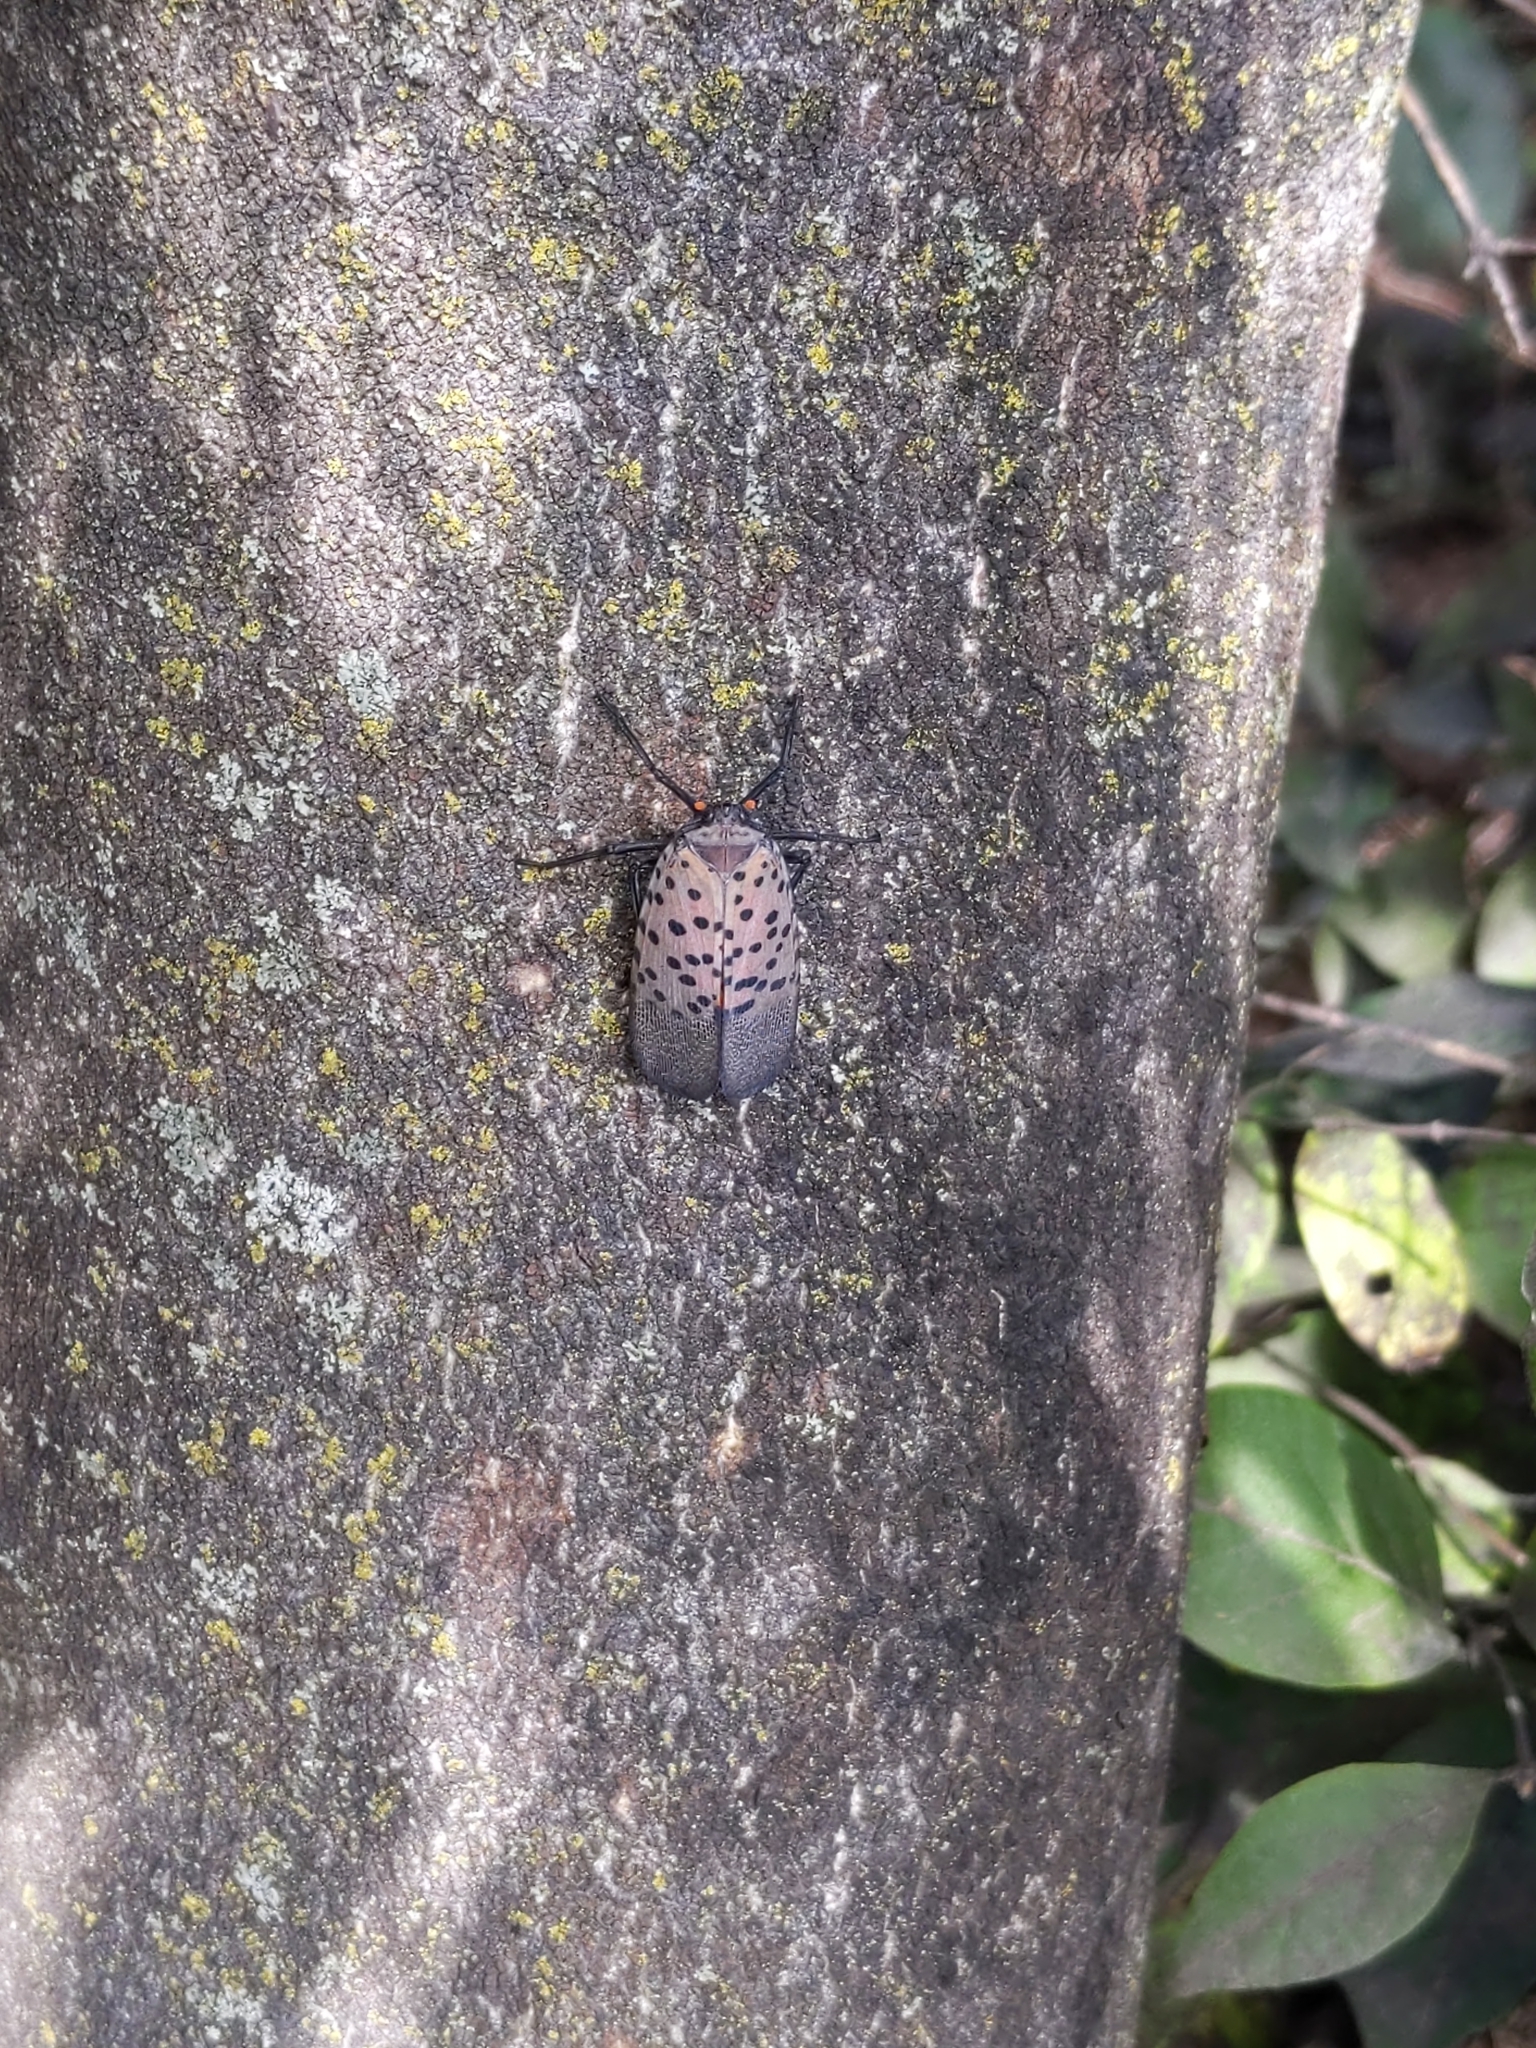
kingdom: Animalia
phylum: Arthropoda
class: Insecta
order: Hemiptera
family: Fulgoridae
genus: Lycorma
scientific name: Lycorma delicatula
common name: Spotted lanternfly
